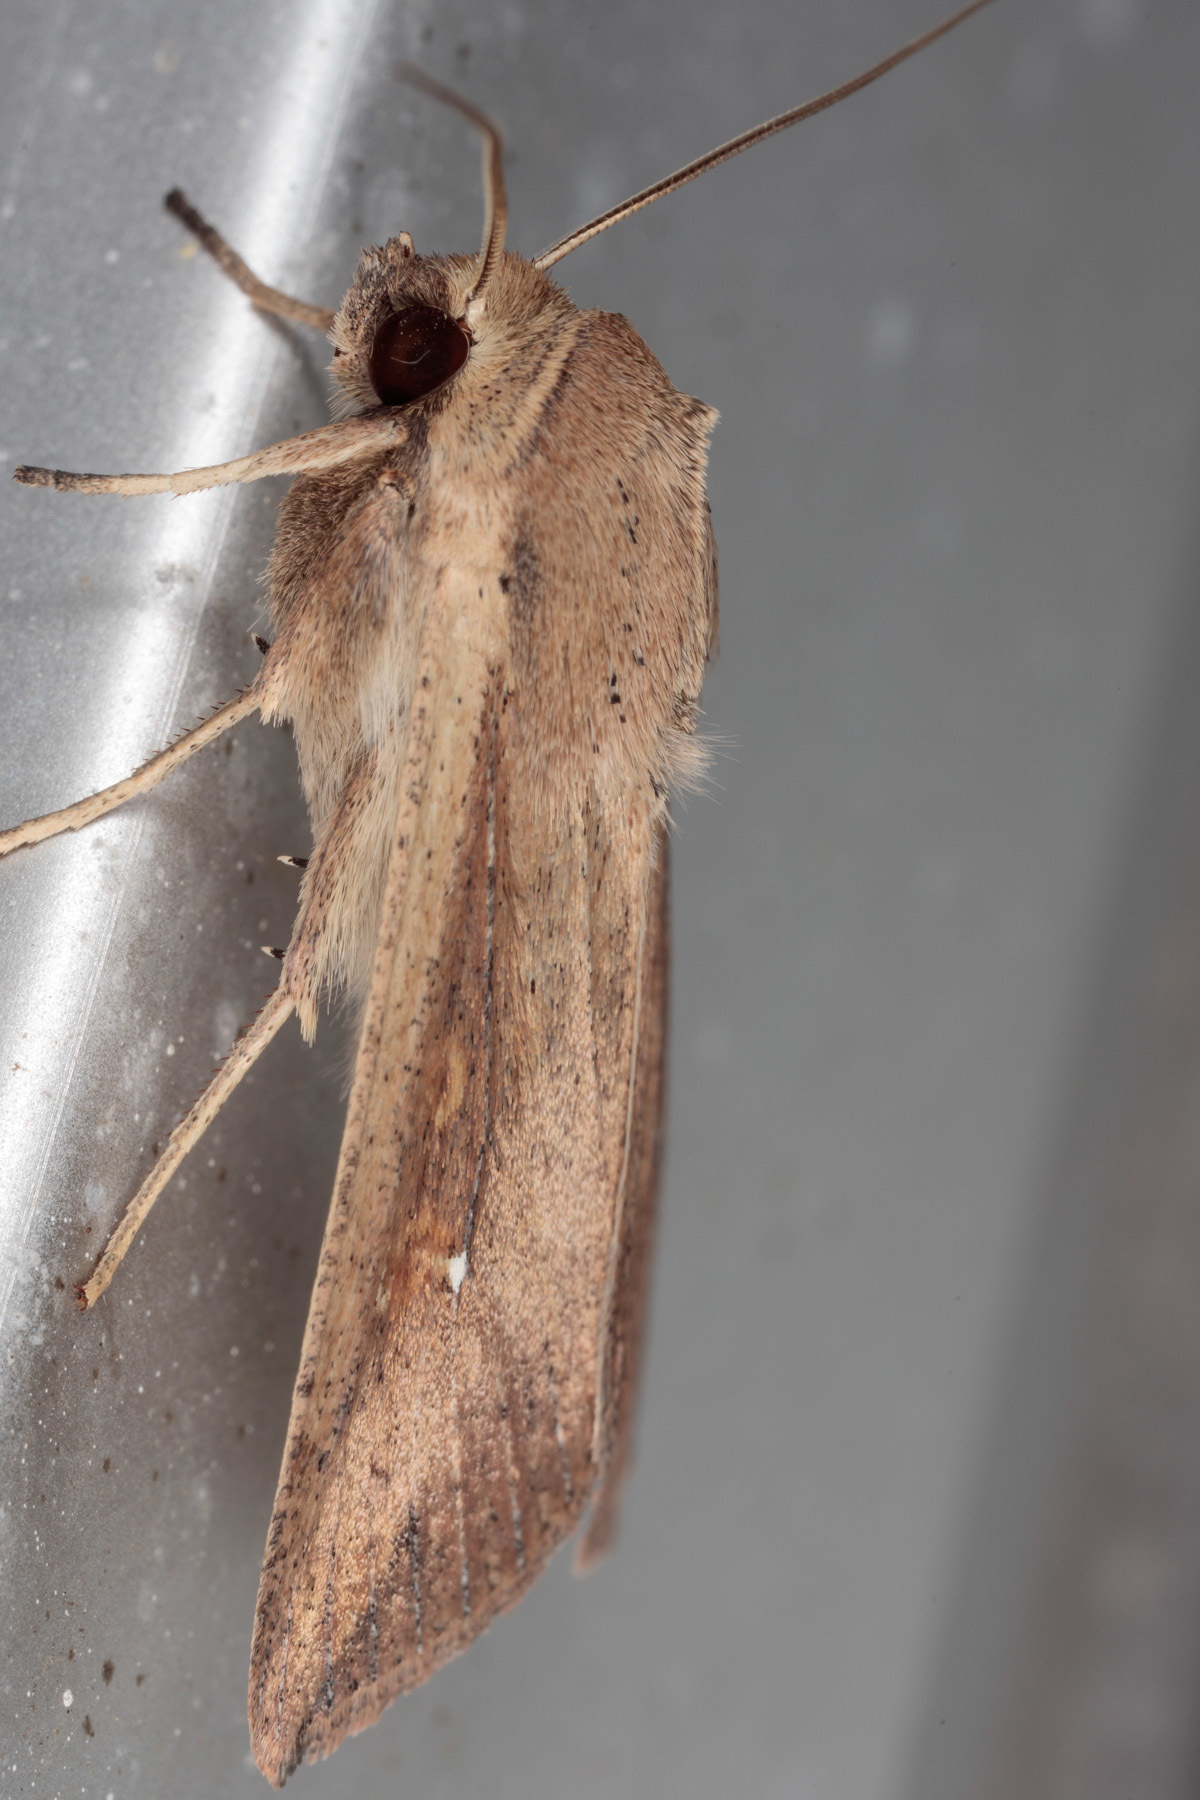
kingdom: Animalia
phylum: Arthropoda
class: Insecta
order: Lepidoptera
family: Noctuidae
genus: Mythimna
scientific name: Mythimna unipuncta
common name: White-speck
